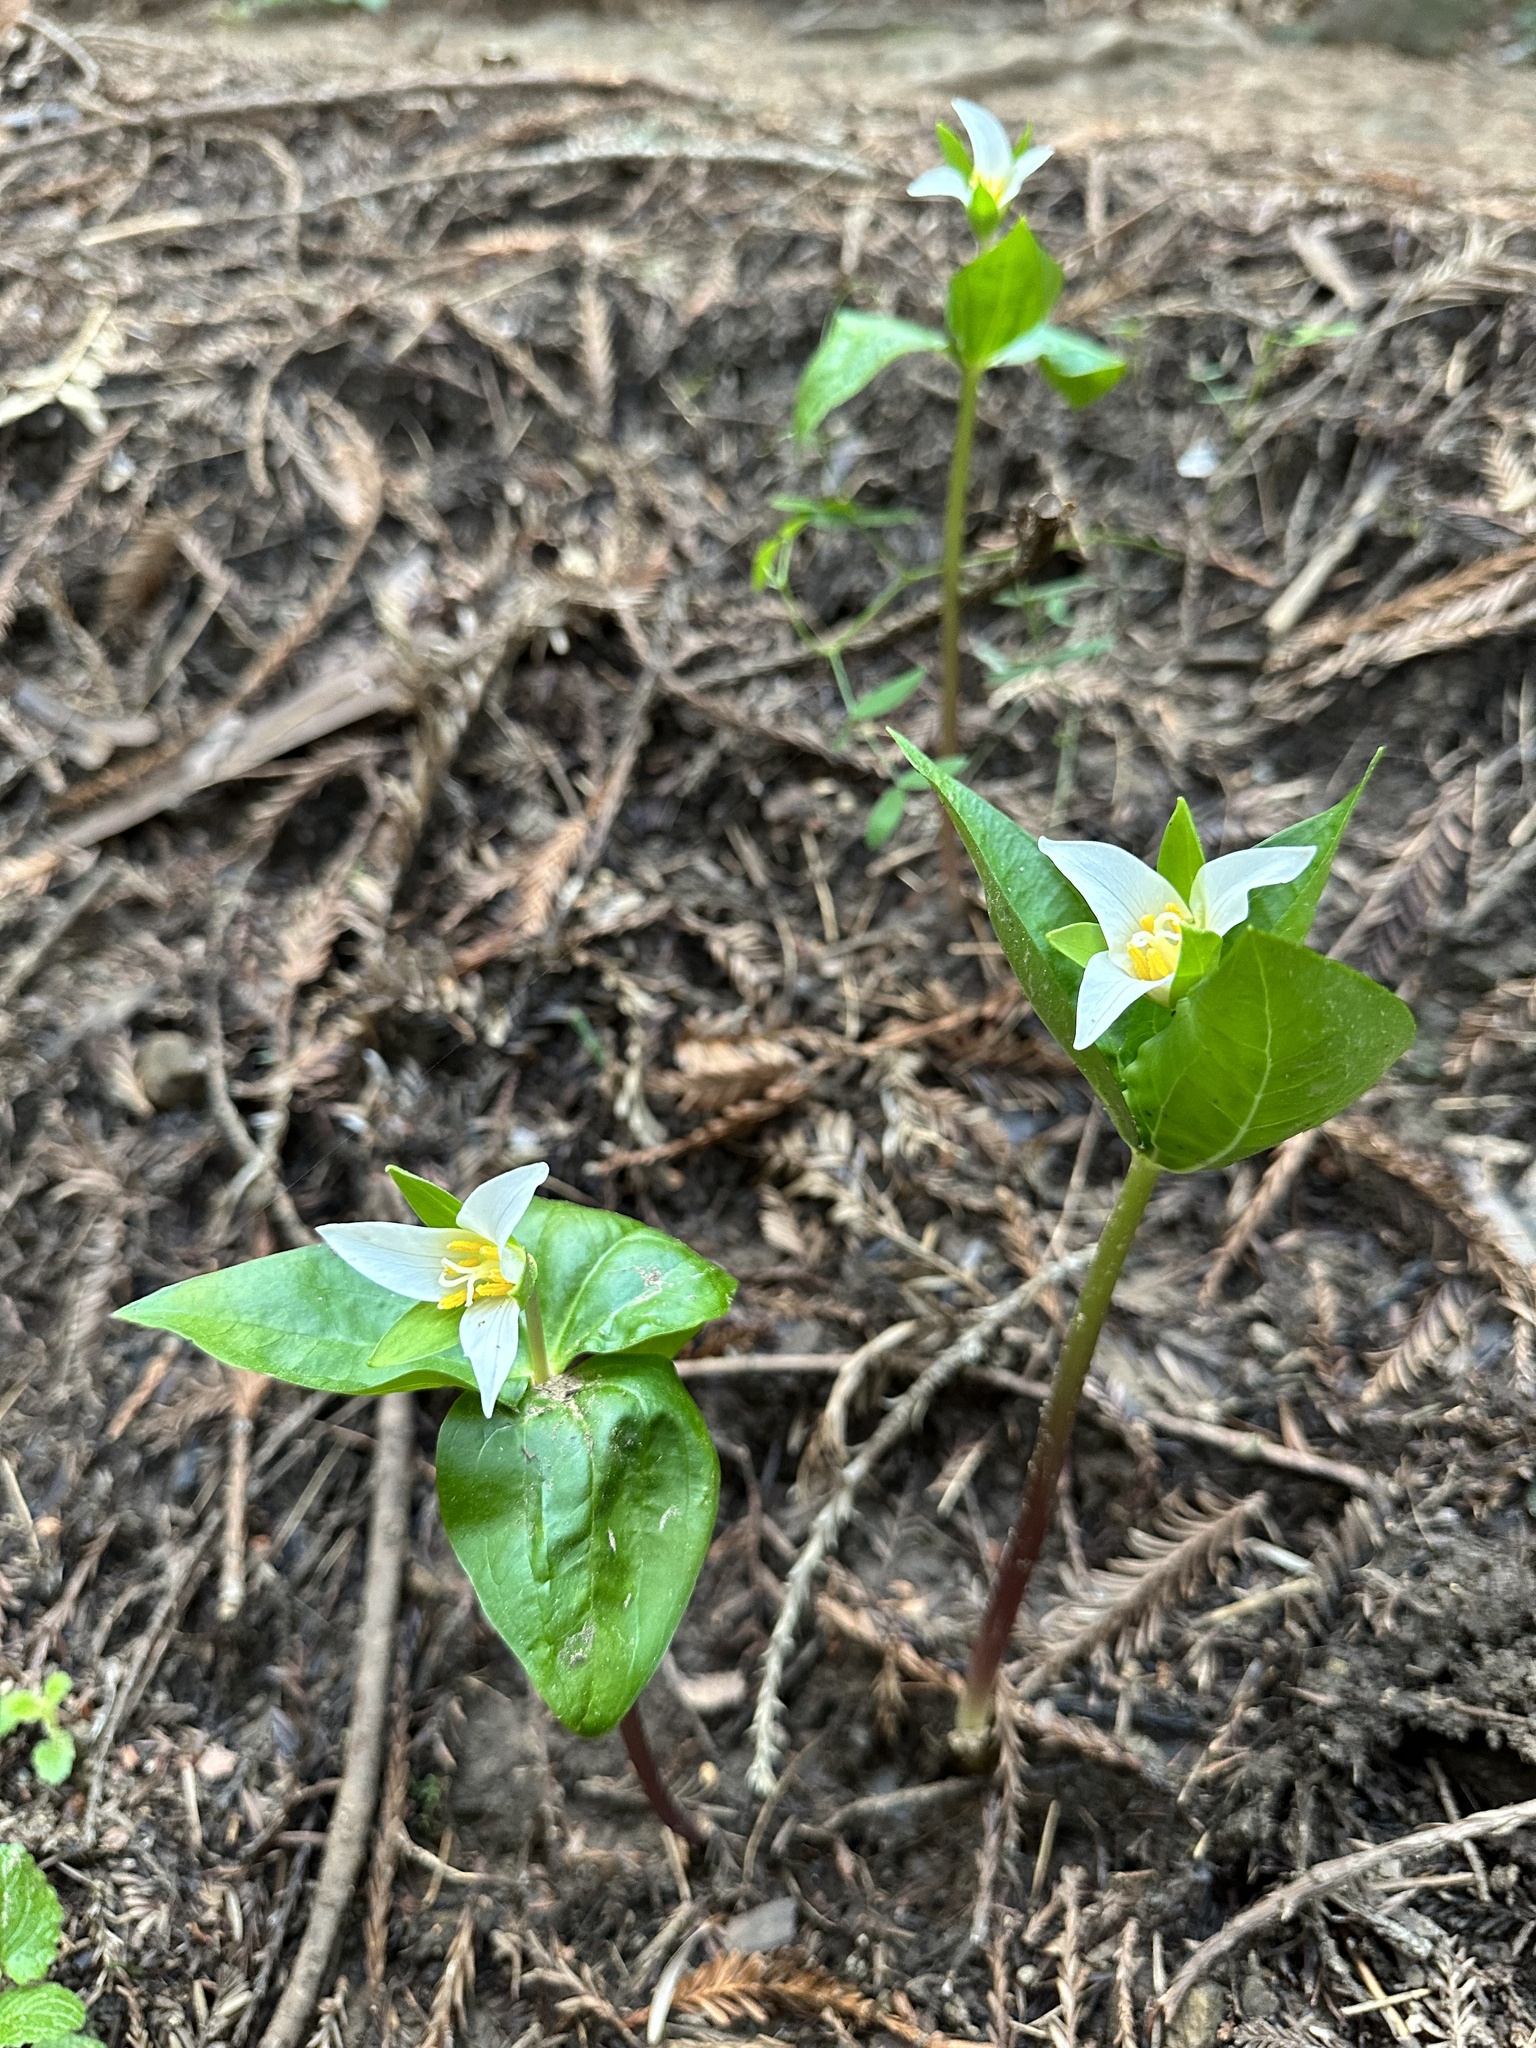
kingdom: Plantae
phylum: Tracheophyta
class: Liliopsida
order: Liliales
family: Melanthiaceae
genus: Trillium
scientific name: Trillium ovatum
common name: Pacific trillium
